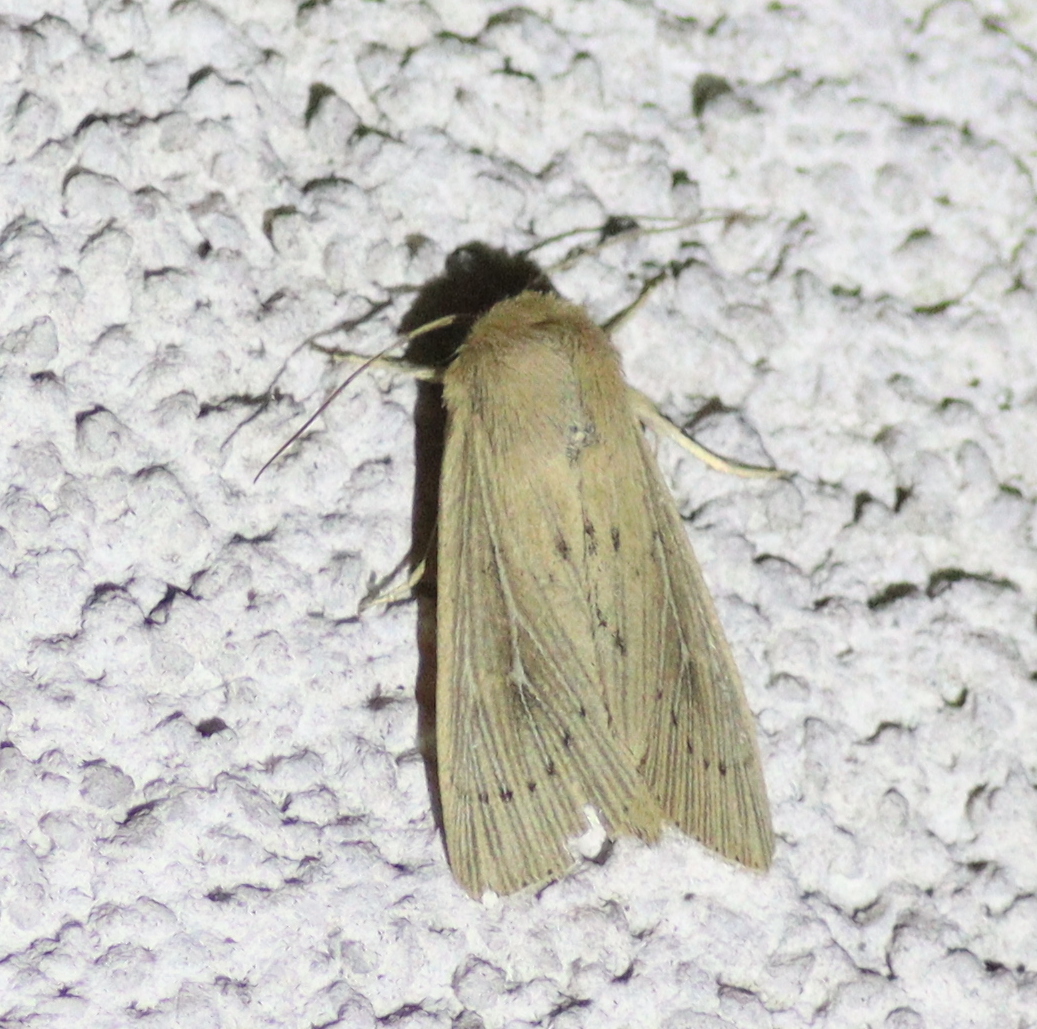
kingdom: Animalia
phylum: Arthropoda
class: Insecta
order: Lepidoptera
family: Noctuidae
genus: Leucania
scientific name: Leucania obsoleta
